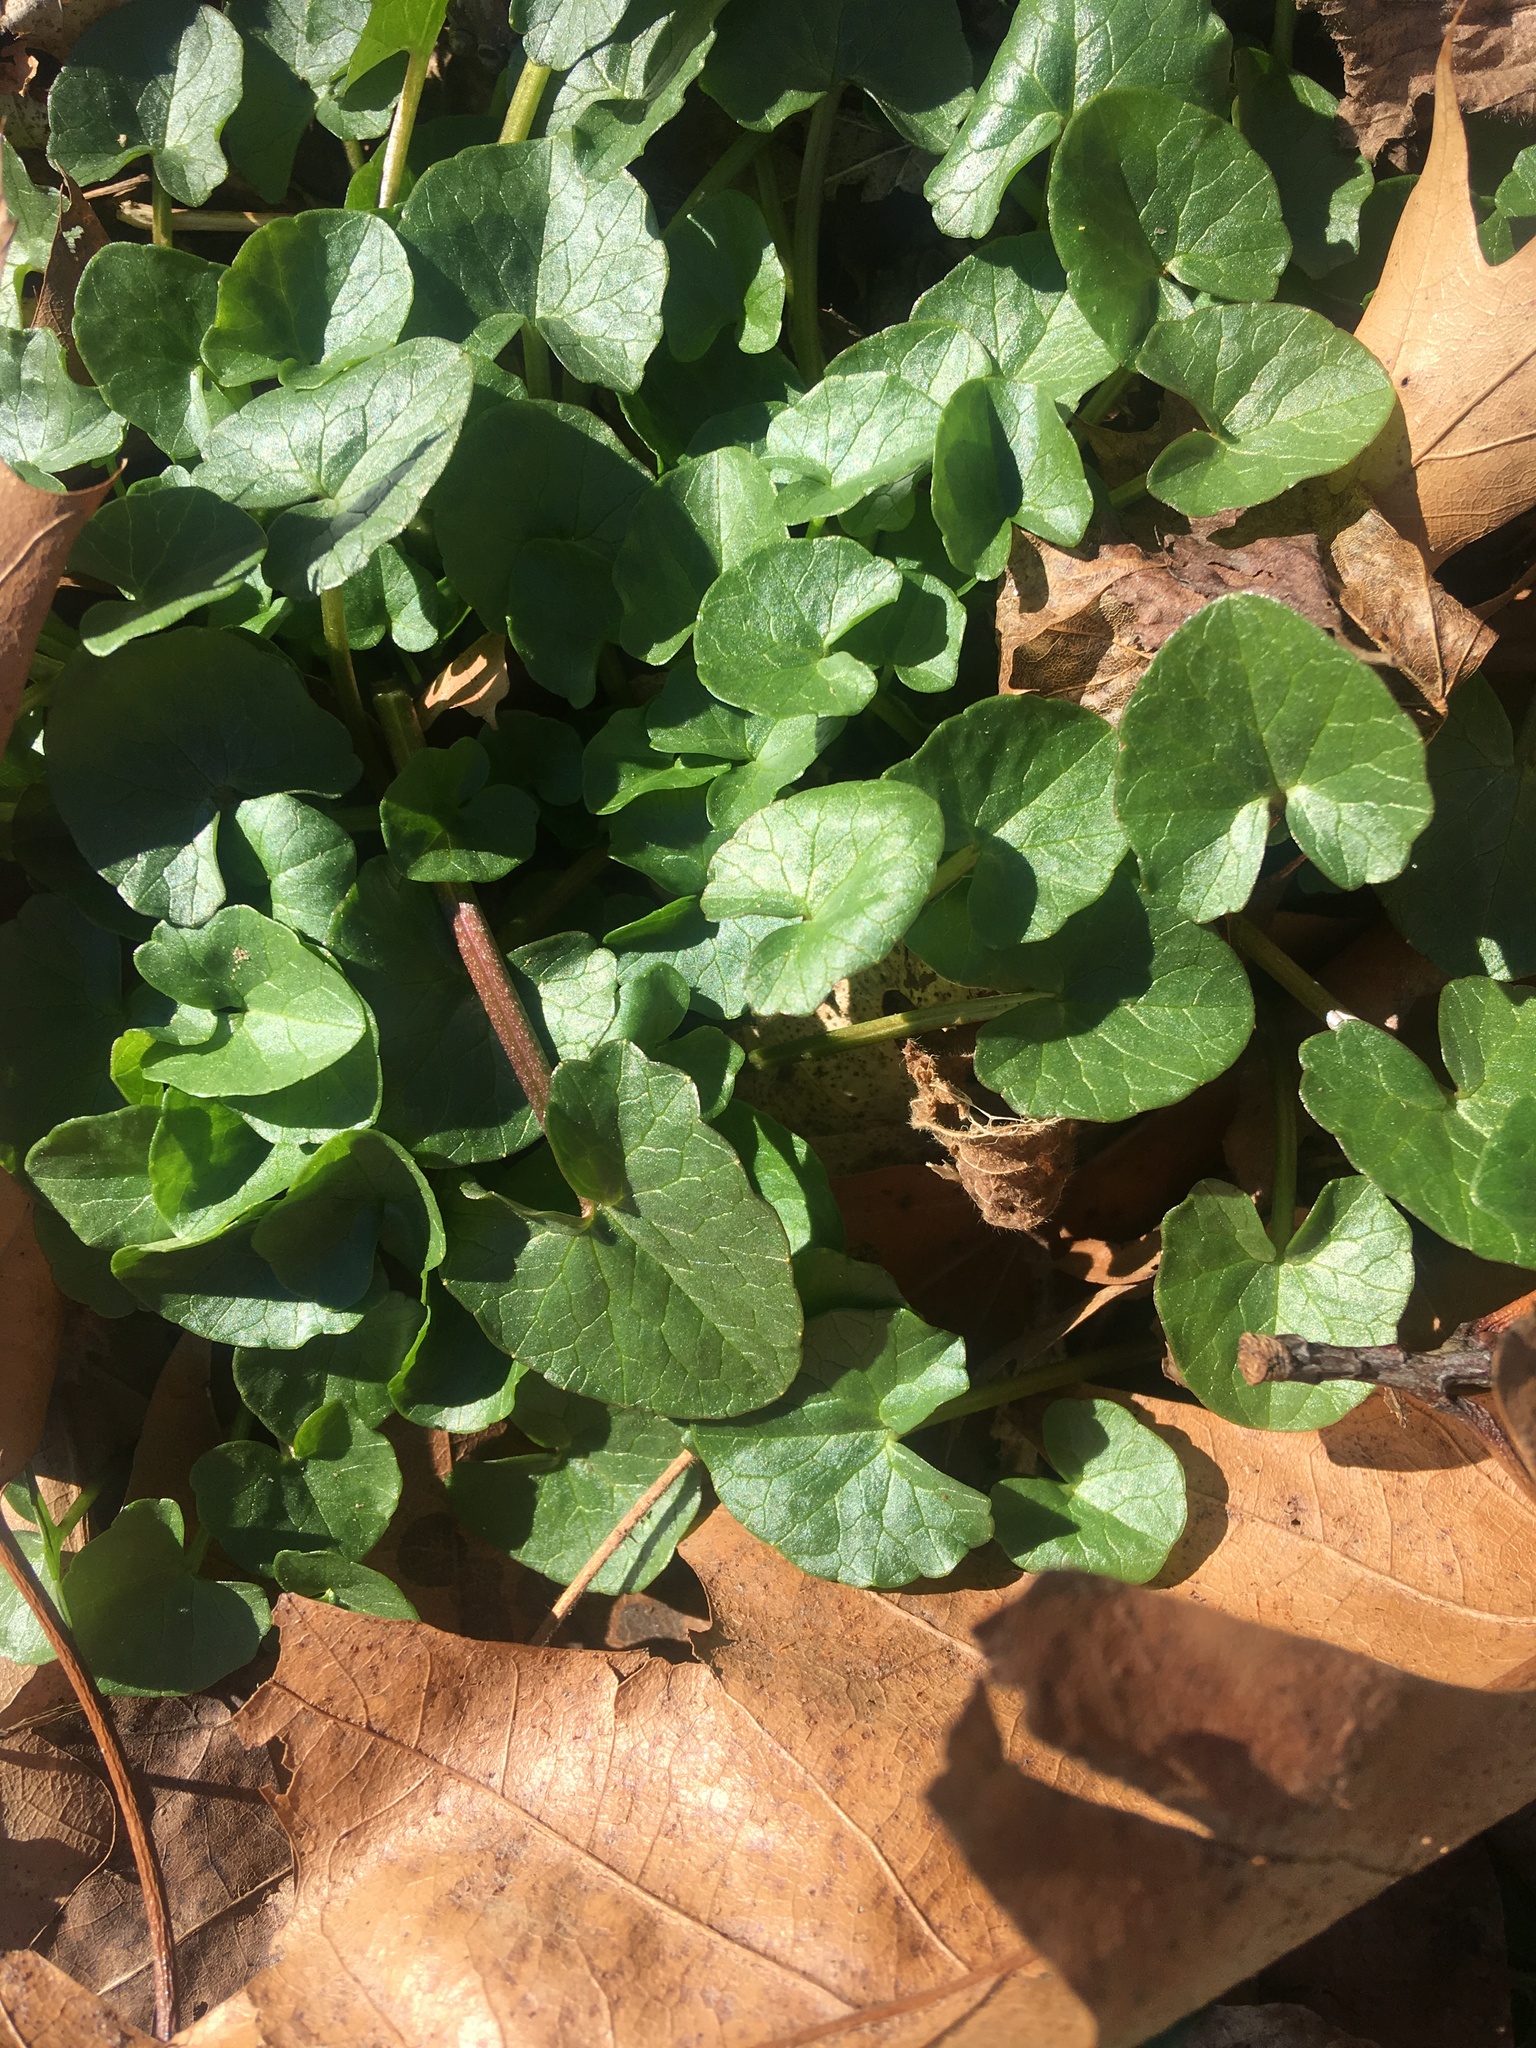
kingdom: Plantae
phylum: Tracheophyta
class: Magnoliopsida
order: Ranunculales
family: Ranunculaceae
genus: Ficaria
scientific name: Ficaria verna
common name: Lesser celandine
